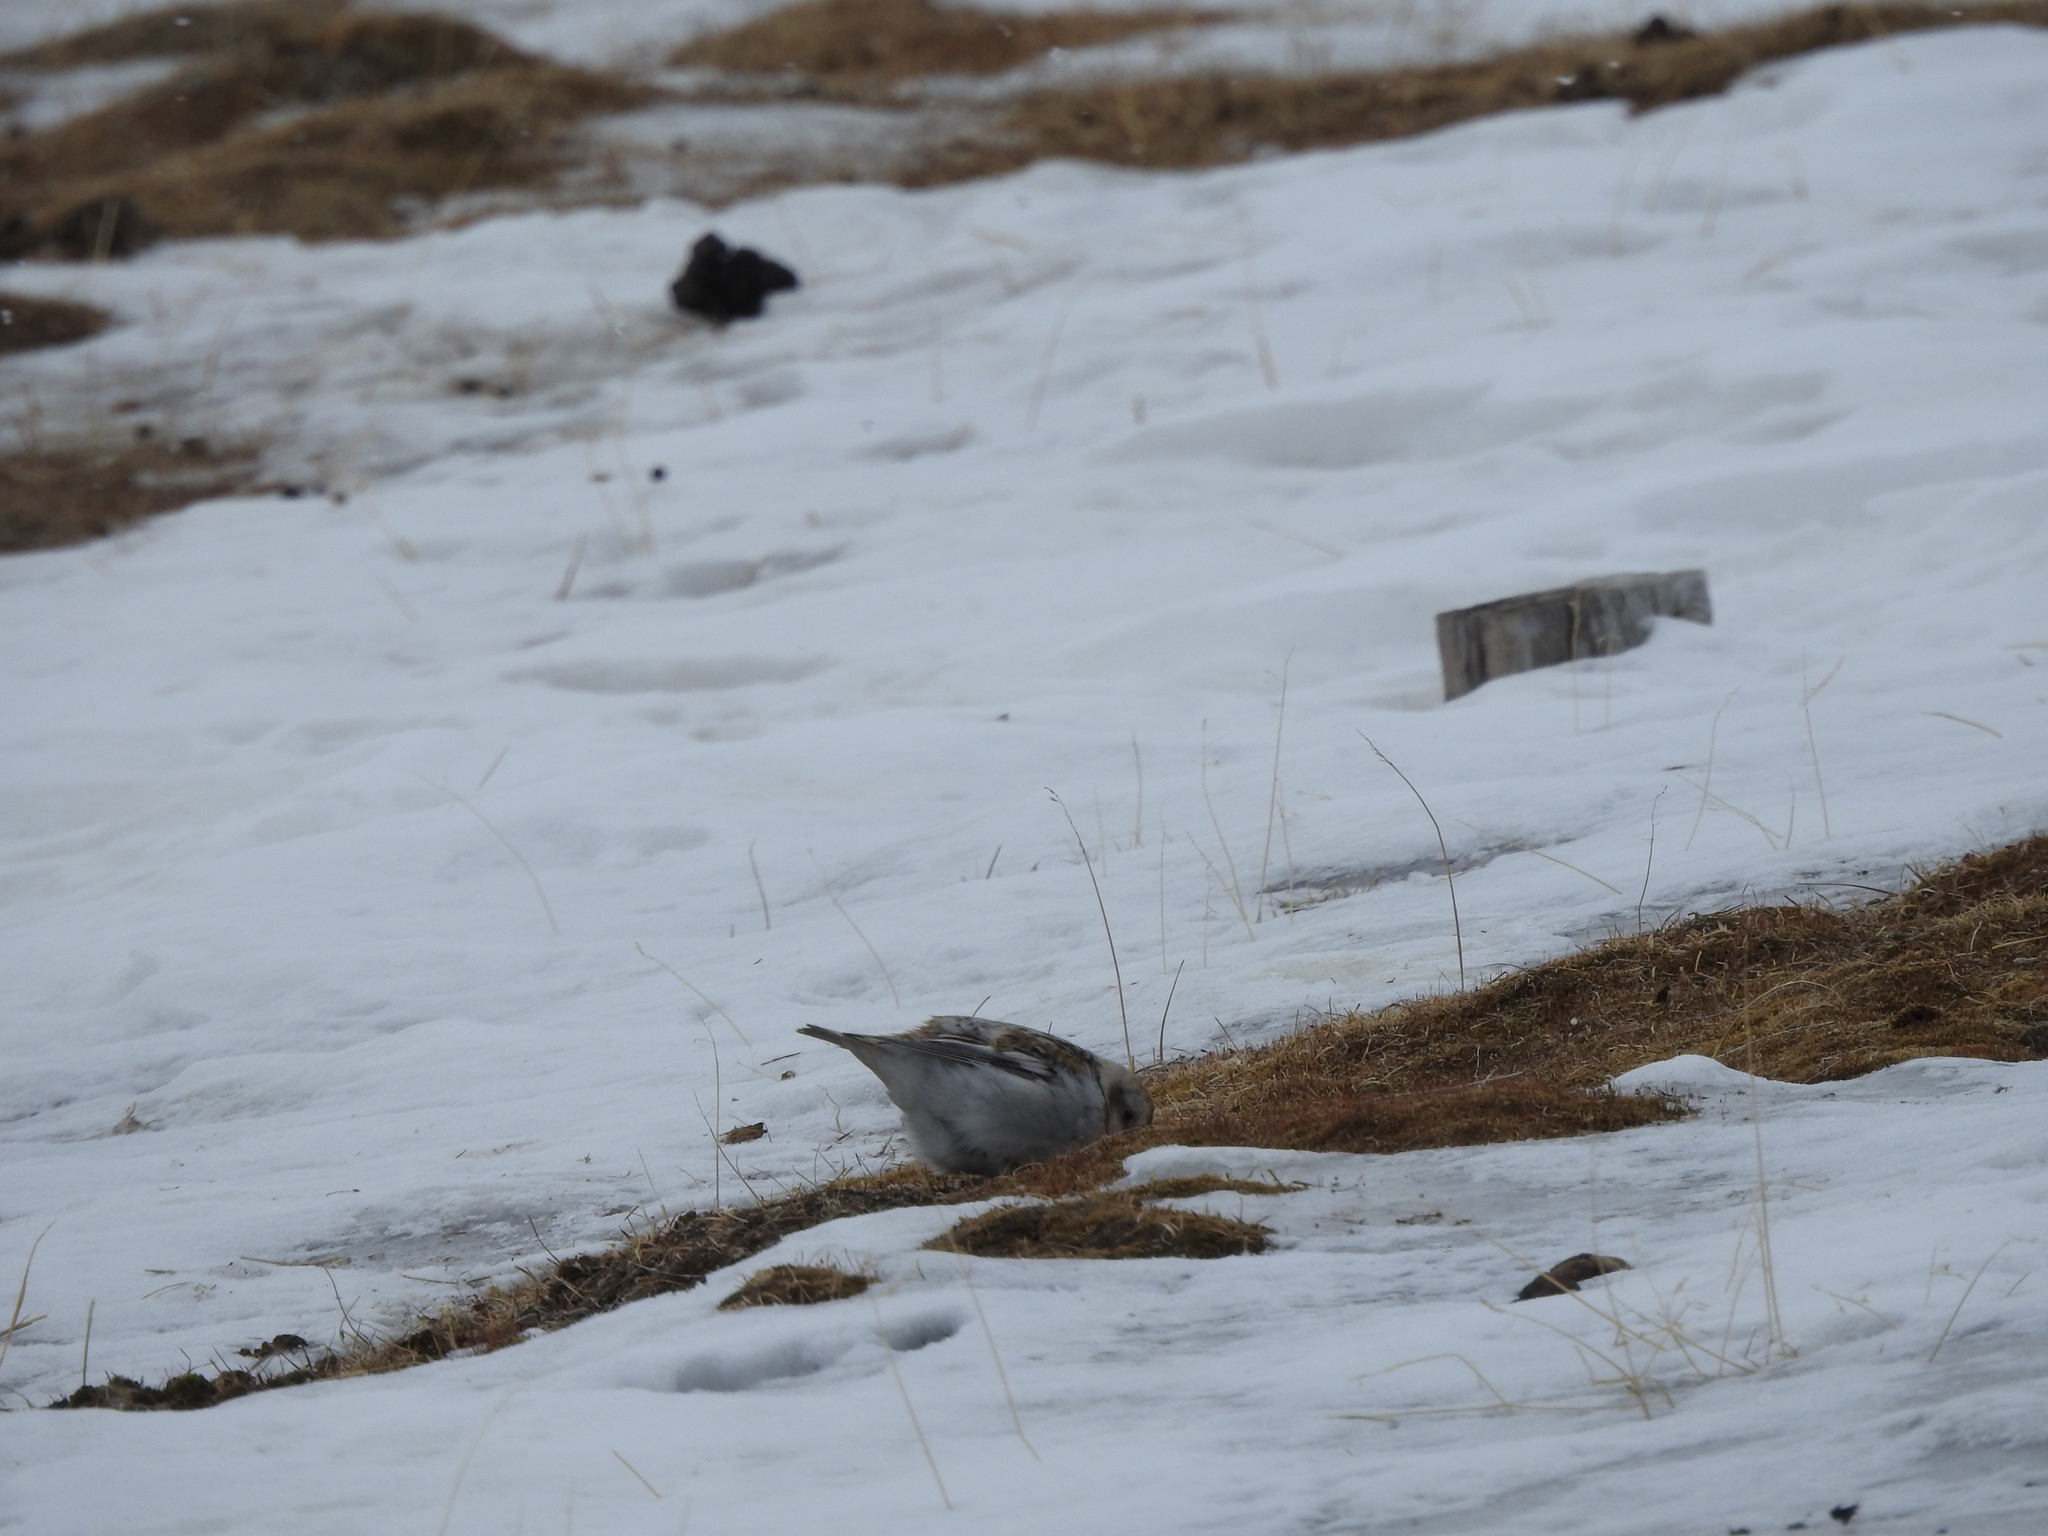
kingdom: Animalia
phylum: Chordata
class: Aves
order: Passeriformes
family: Calcariidae
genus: Plectrophenax
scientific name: Plectrophenax nivalis
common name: Snow bunting
